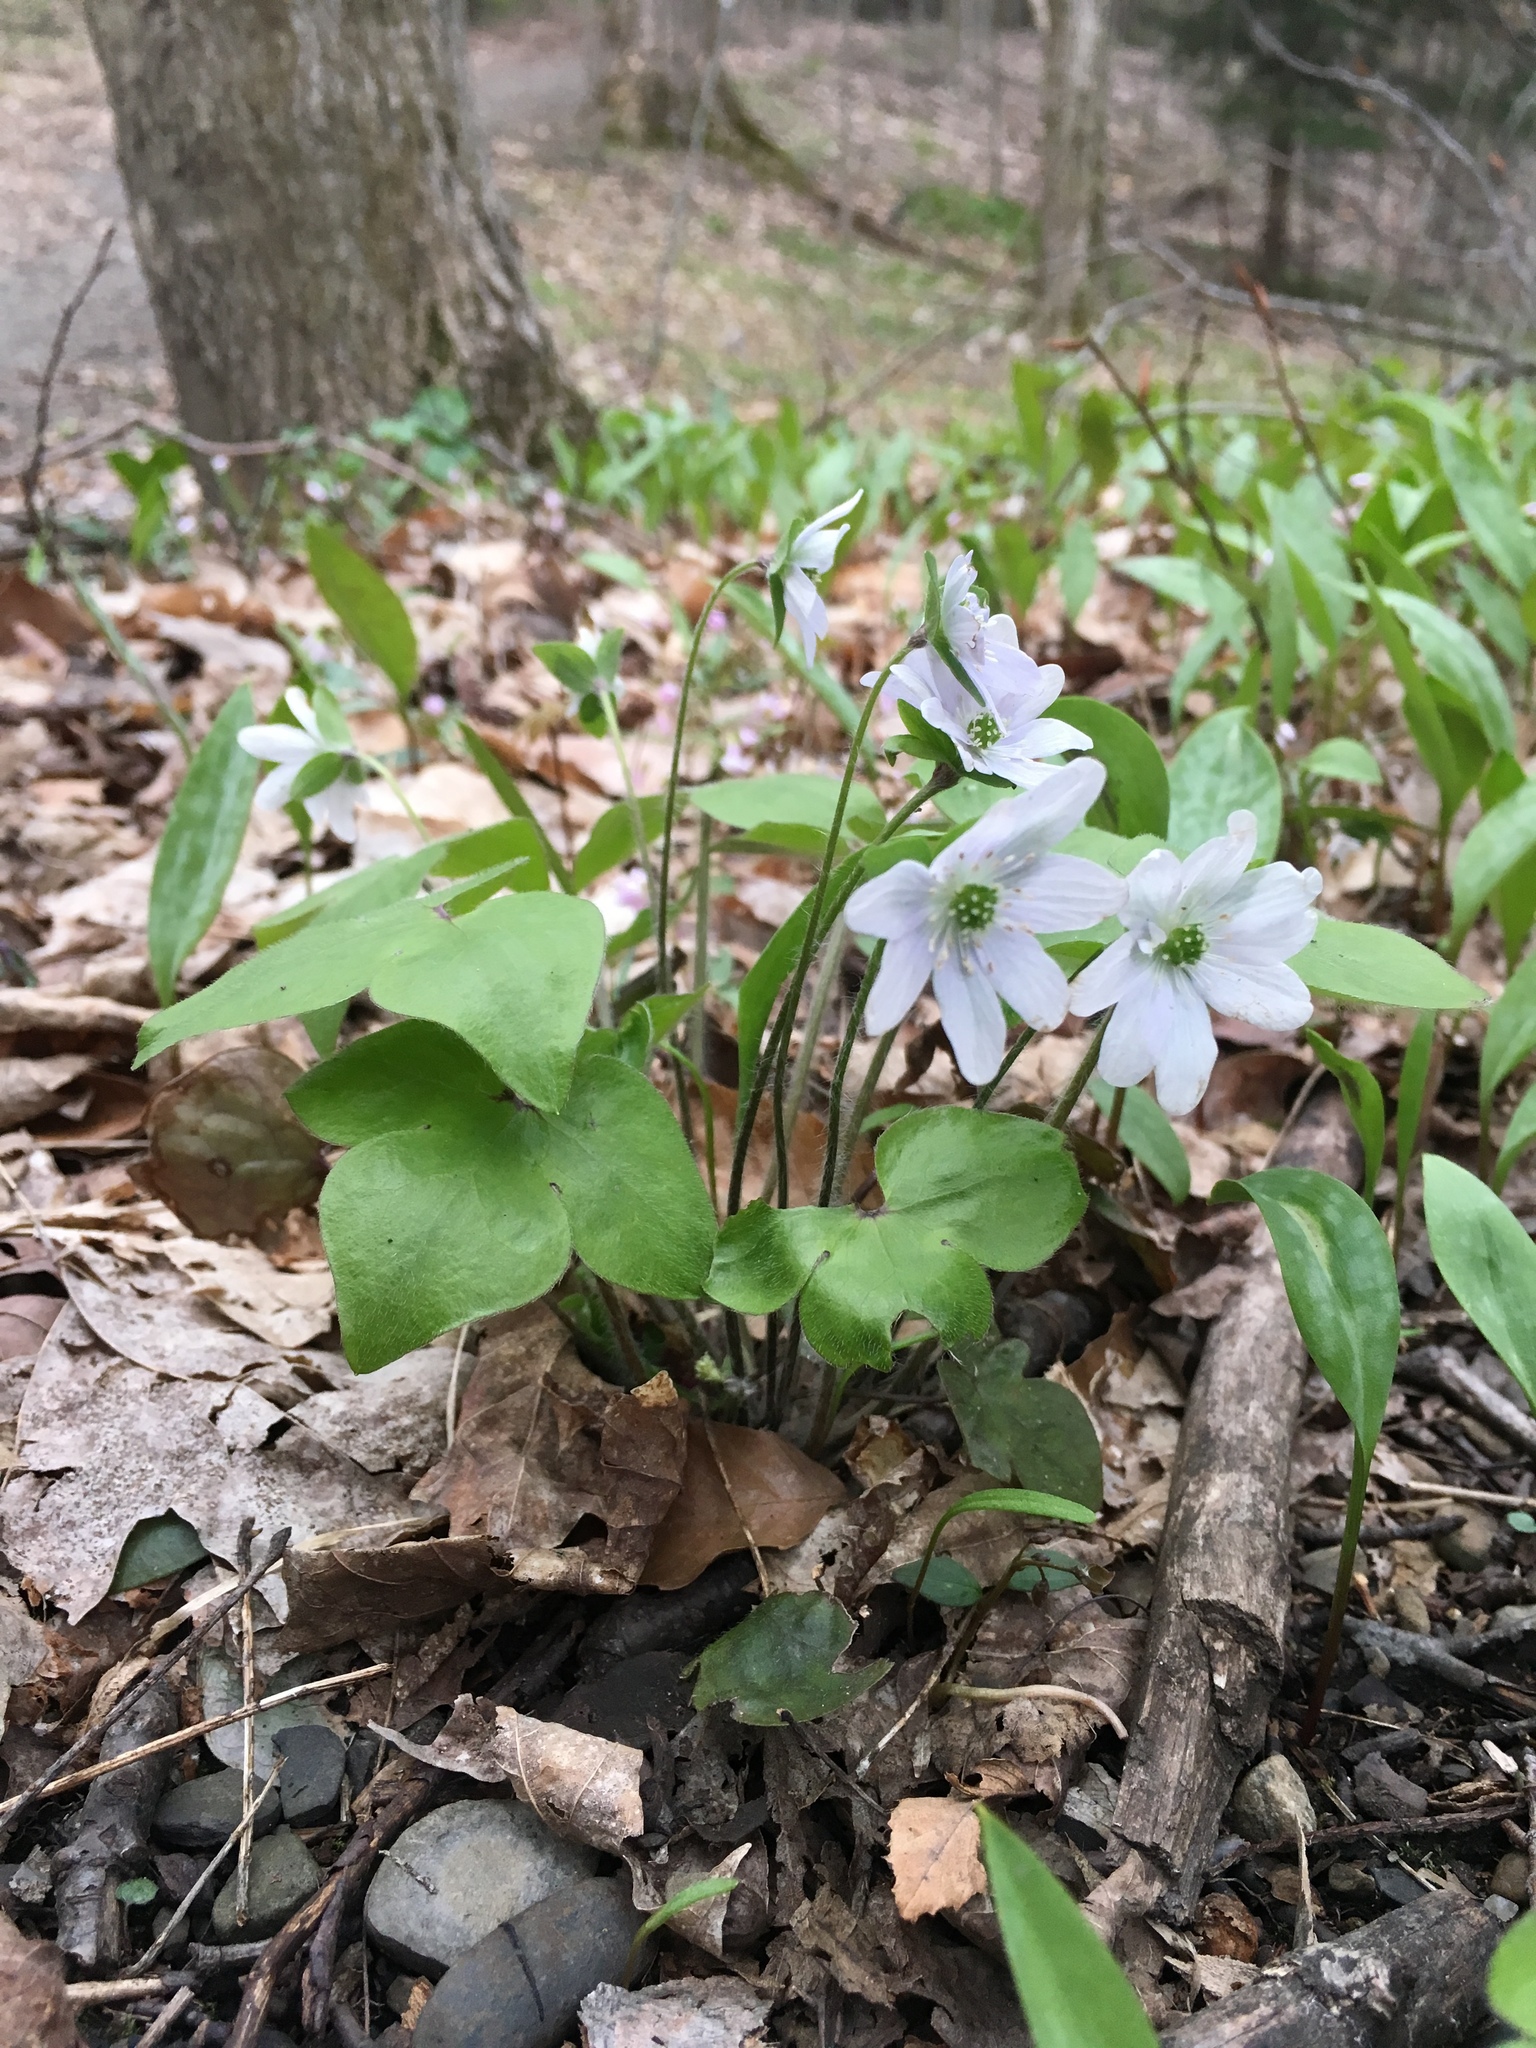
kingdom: Plantae
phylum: Tracheophyta
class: Magnoliopsida
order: Ranunculales
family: Ranunculaceae
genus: Hepatica
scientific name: Hepatica acutiloba
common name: Sharp-lobed hepatica
